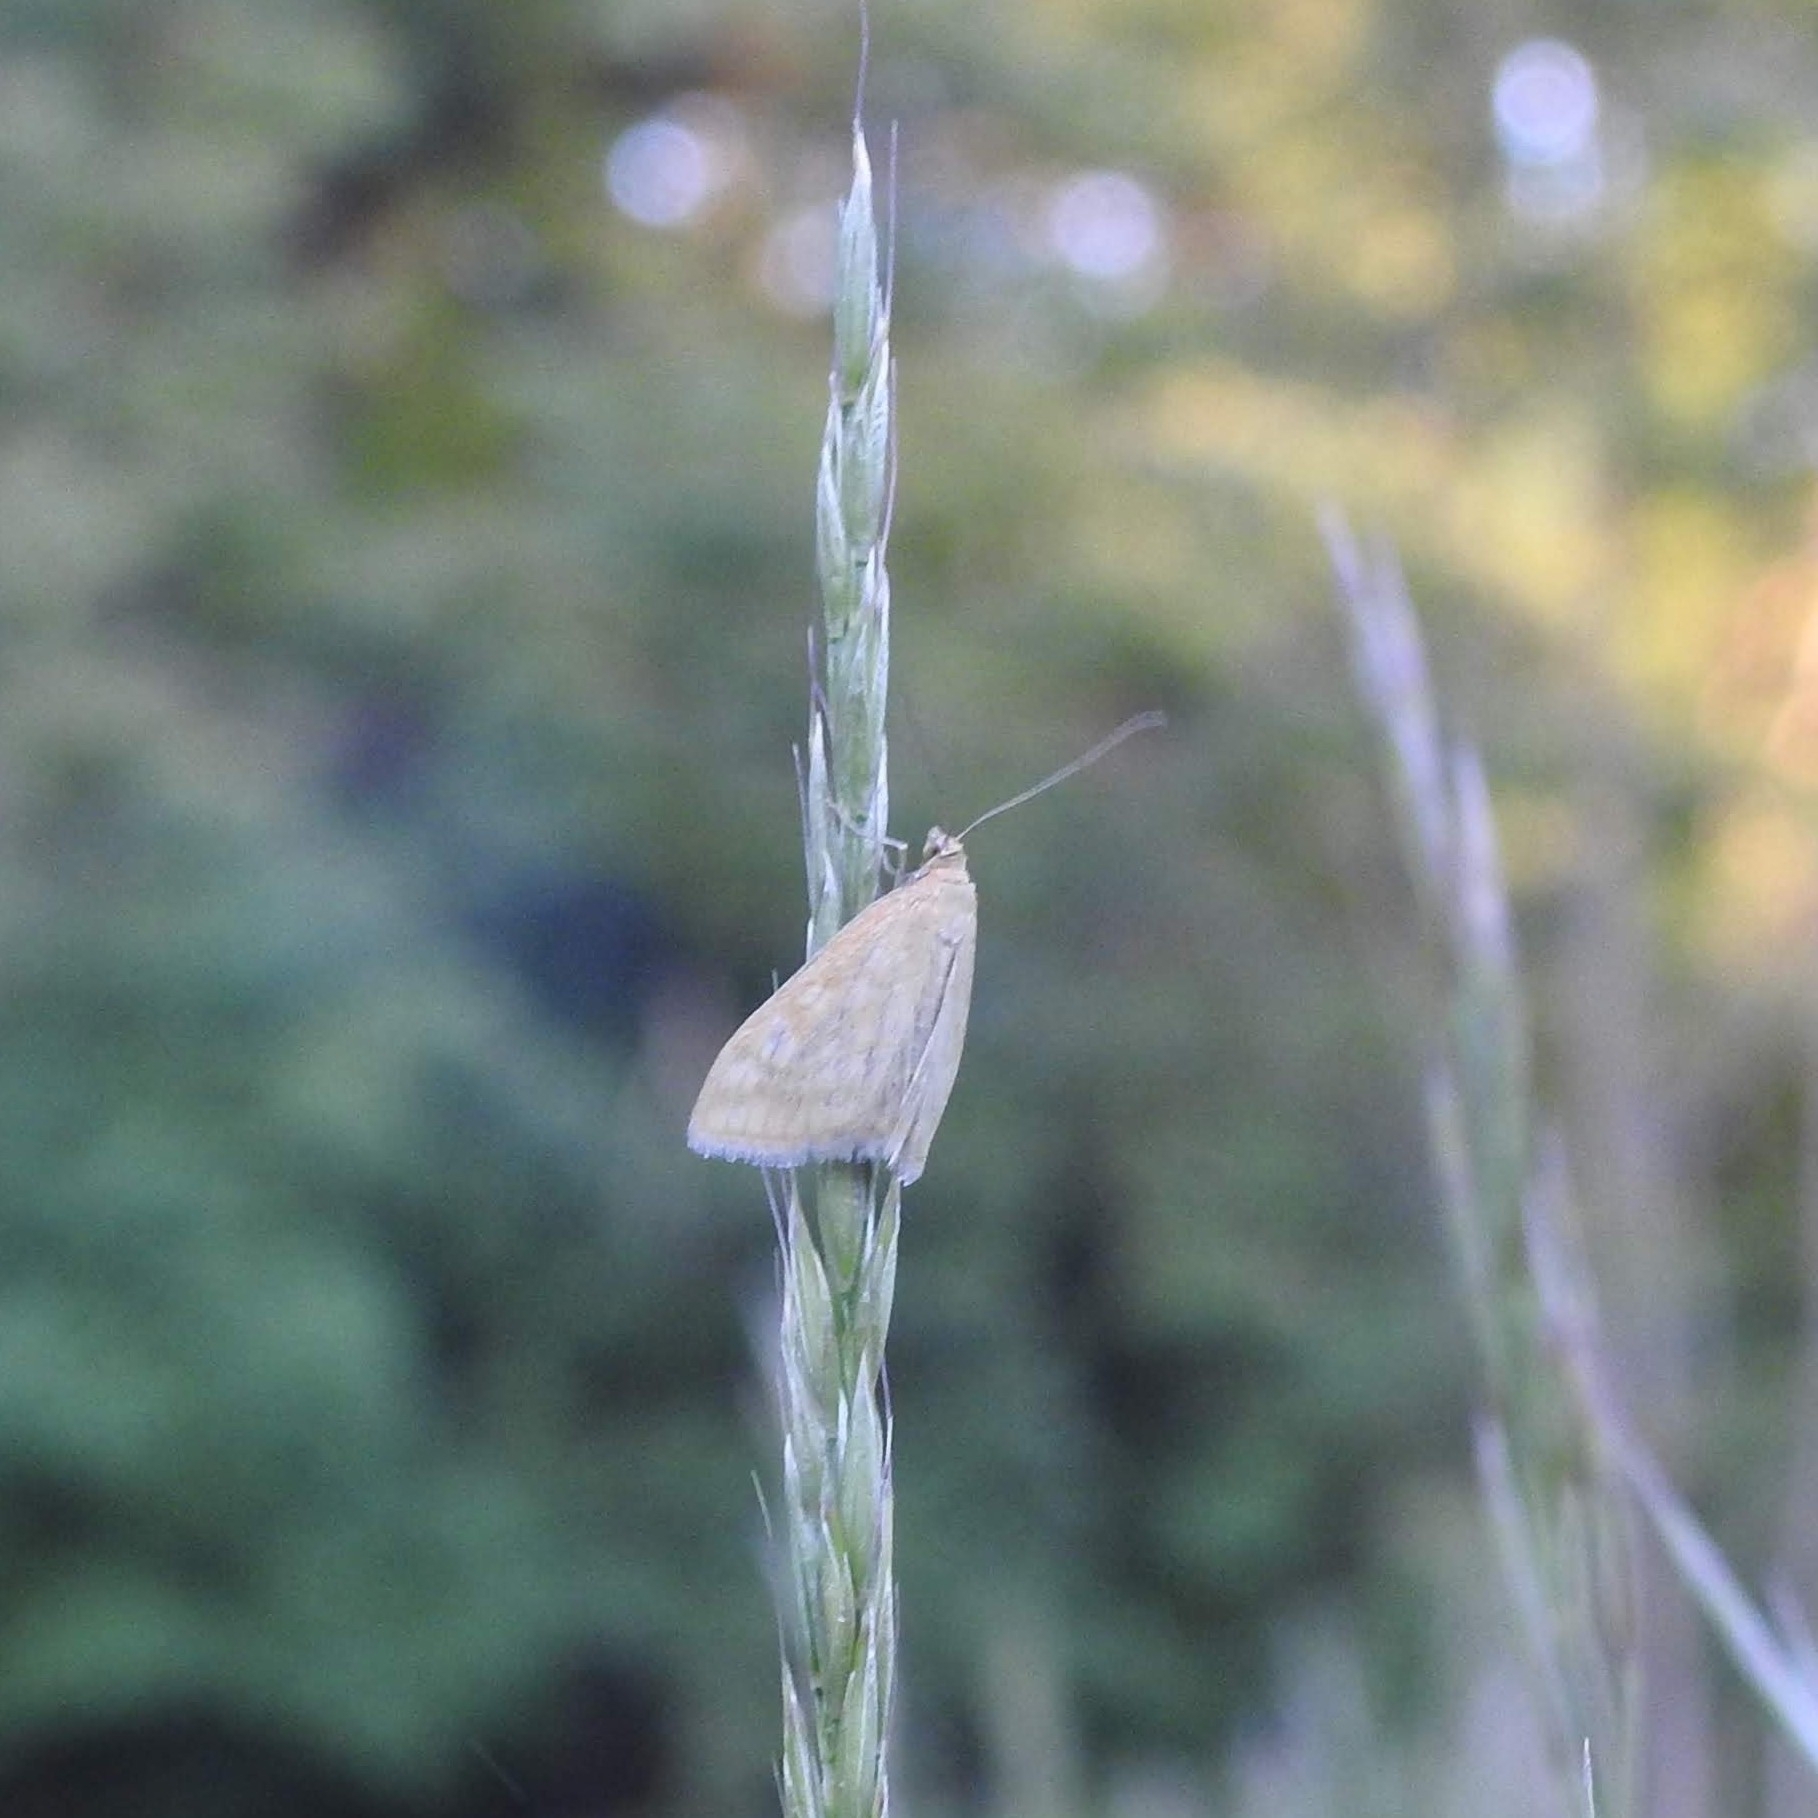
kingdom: Animalia
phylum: Arthropoda
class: Insecta
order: Lepidoptera
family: Crambidae
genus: Sitochroa
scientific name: Sitochroa verticalis
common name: Lesser pearl
